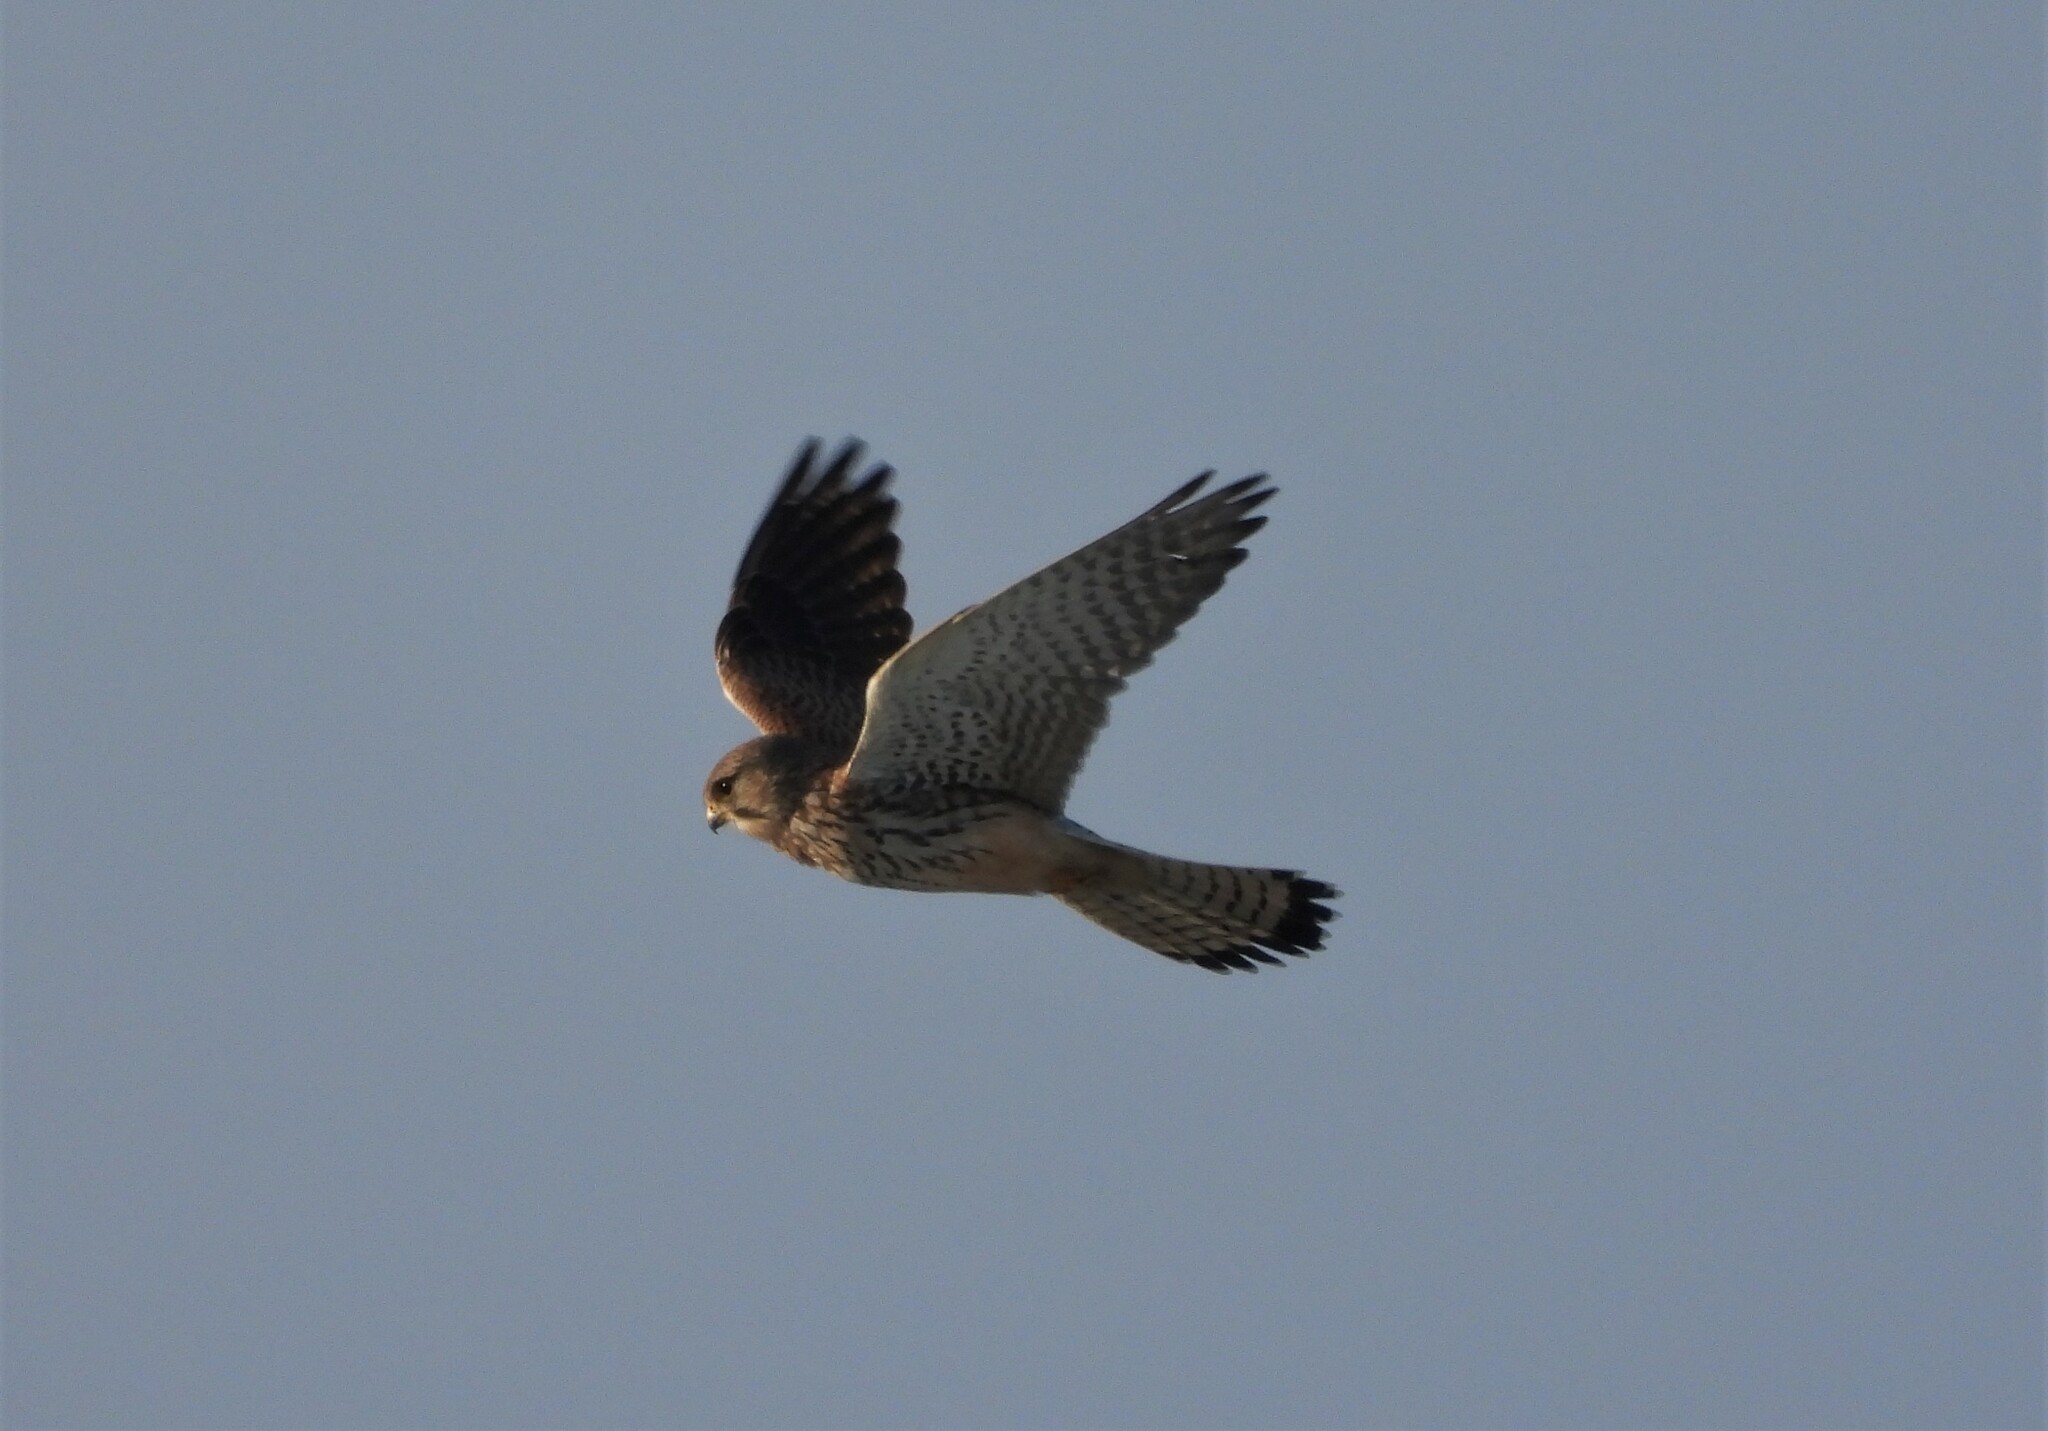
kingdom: Animalia
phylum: Chordata
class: Aves
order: Falconiformes
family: Falconidae
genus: Falco
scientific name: Falco tinnunculus
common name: Common kestrel
